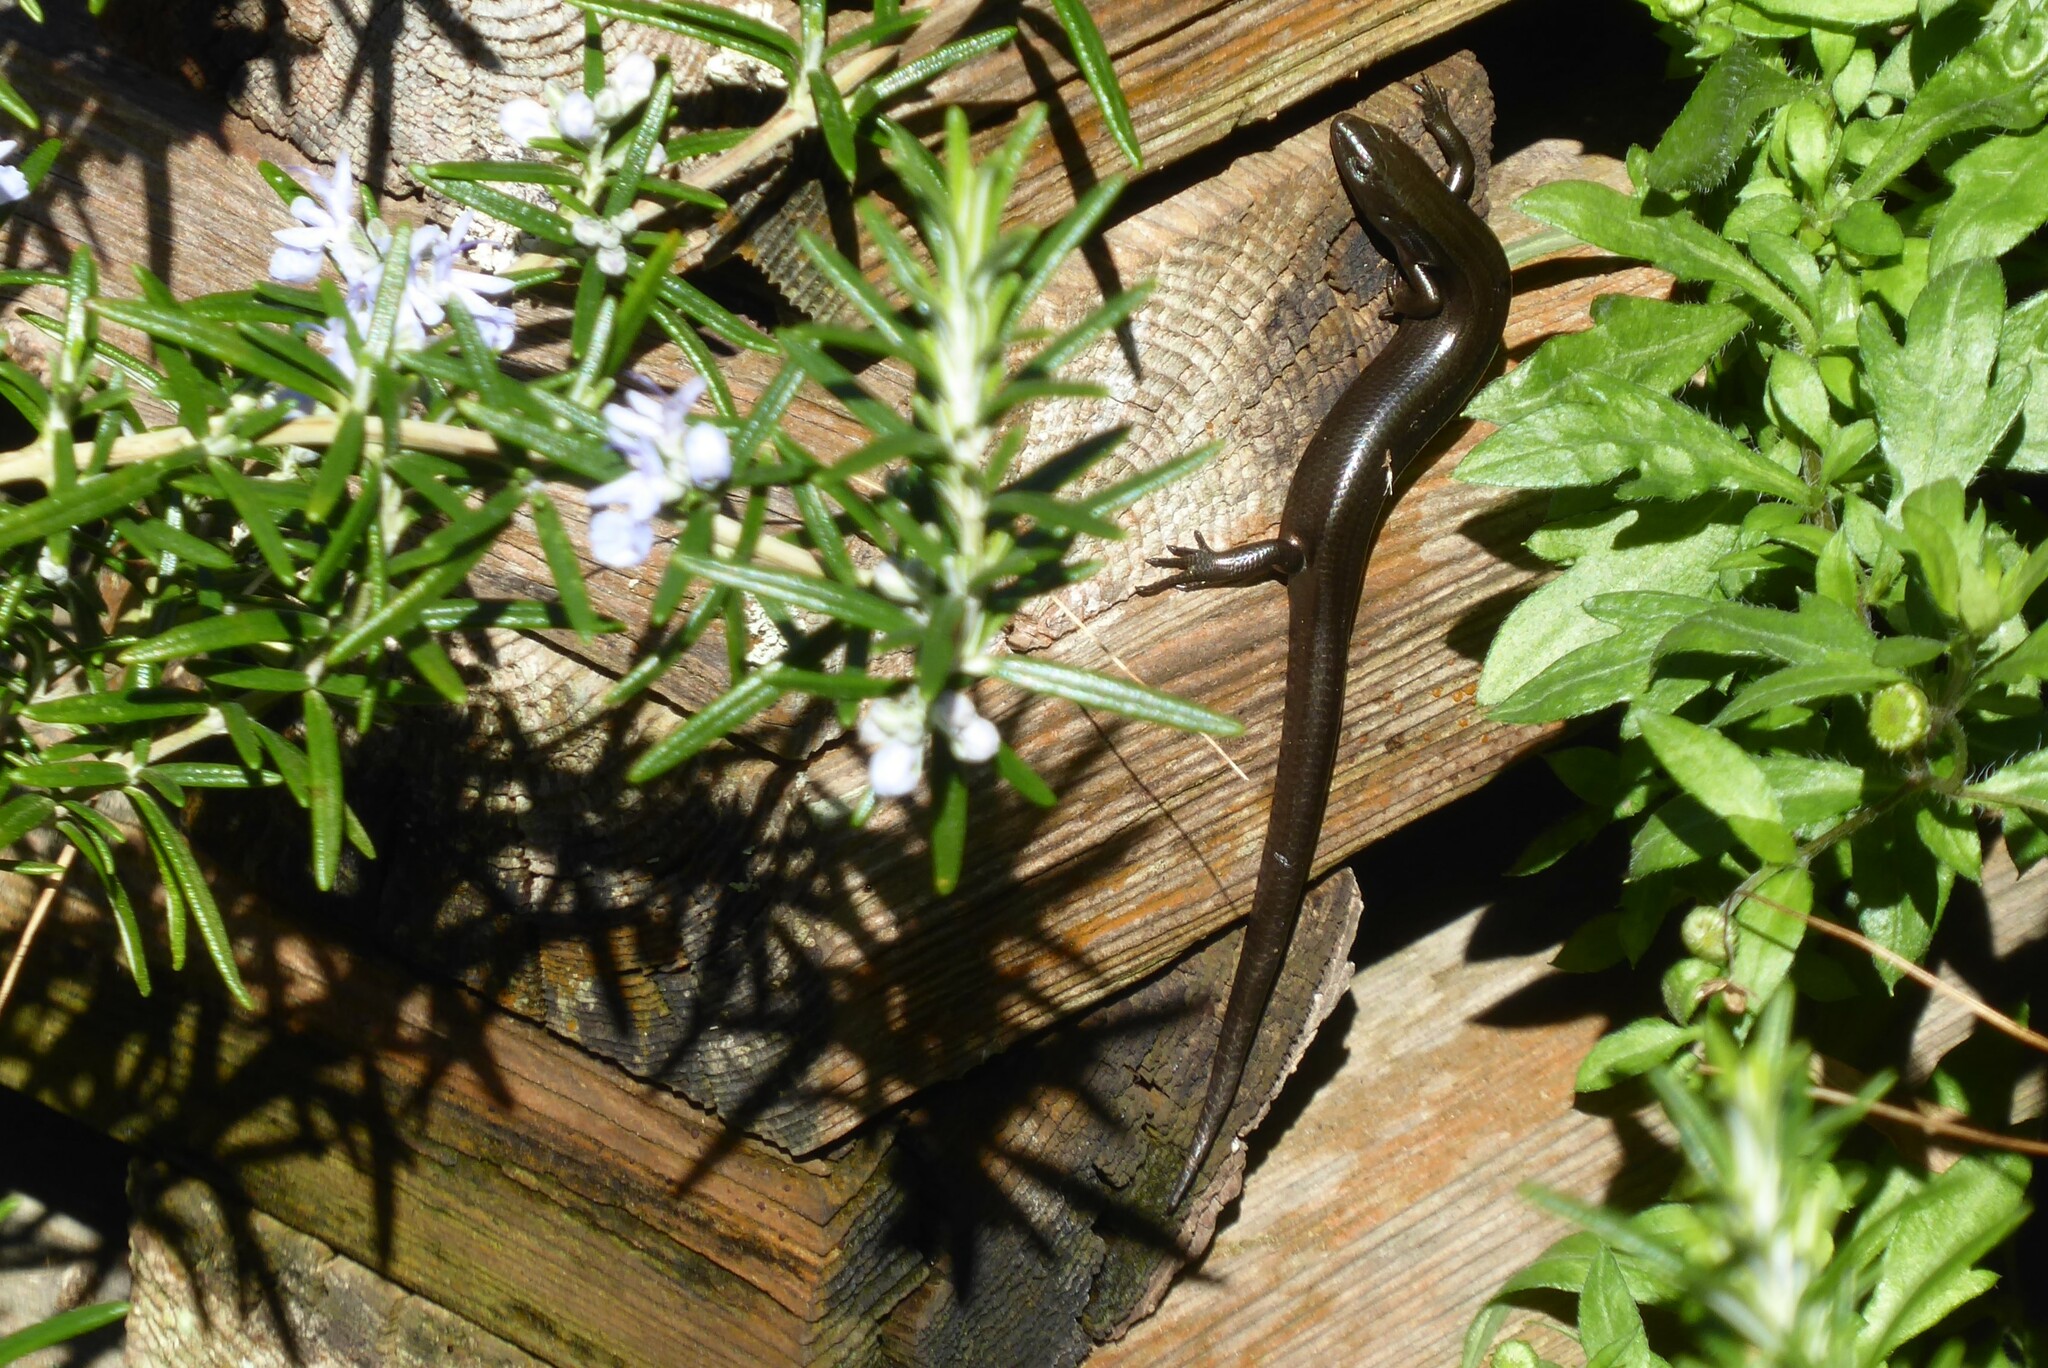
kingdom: Animalia
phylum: Chordata
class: Squamata
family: Scincidae
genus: Oligosoma
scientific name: Oligosoma polychroma
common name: Common new zealand skink
